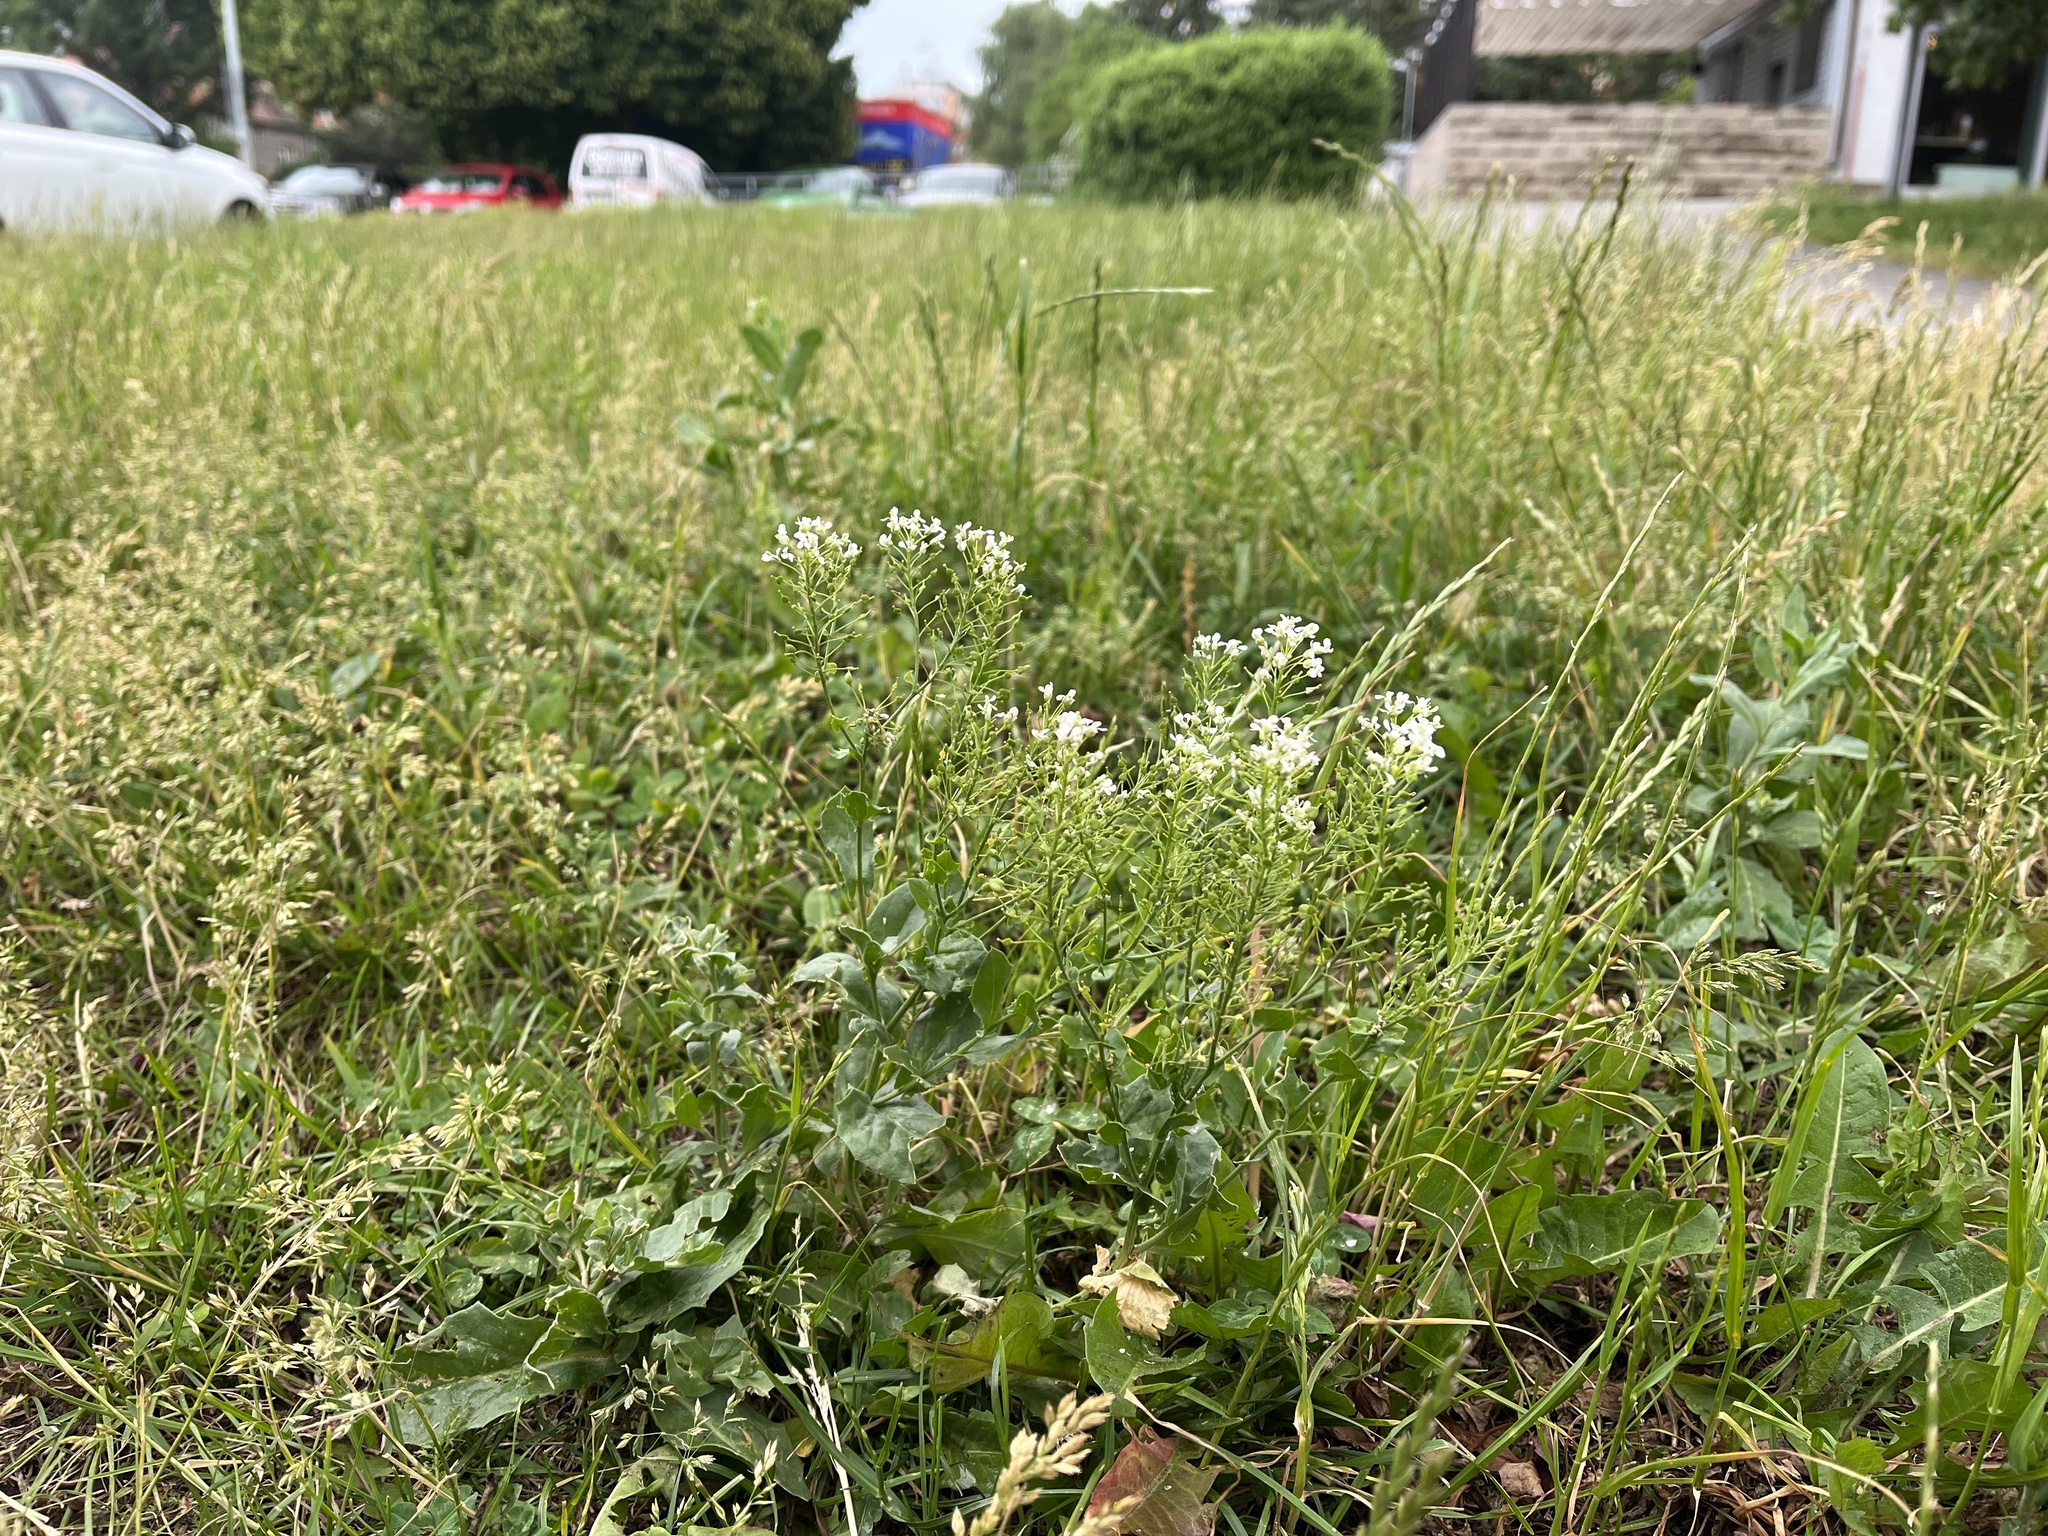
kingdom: Plantae
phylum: Tracheophyta
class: Magnoliopsida
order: Brassicales
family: Brassicaceae
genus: Lepidium
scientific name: Lepidium draba
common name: Hoary cress
